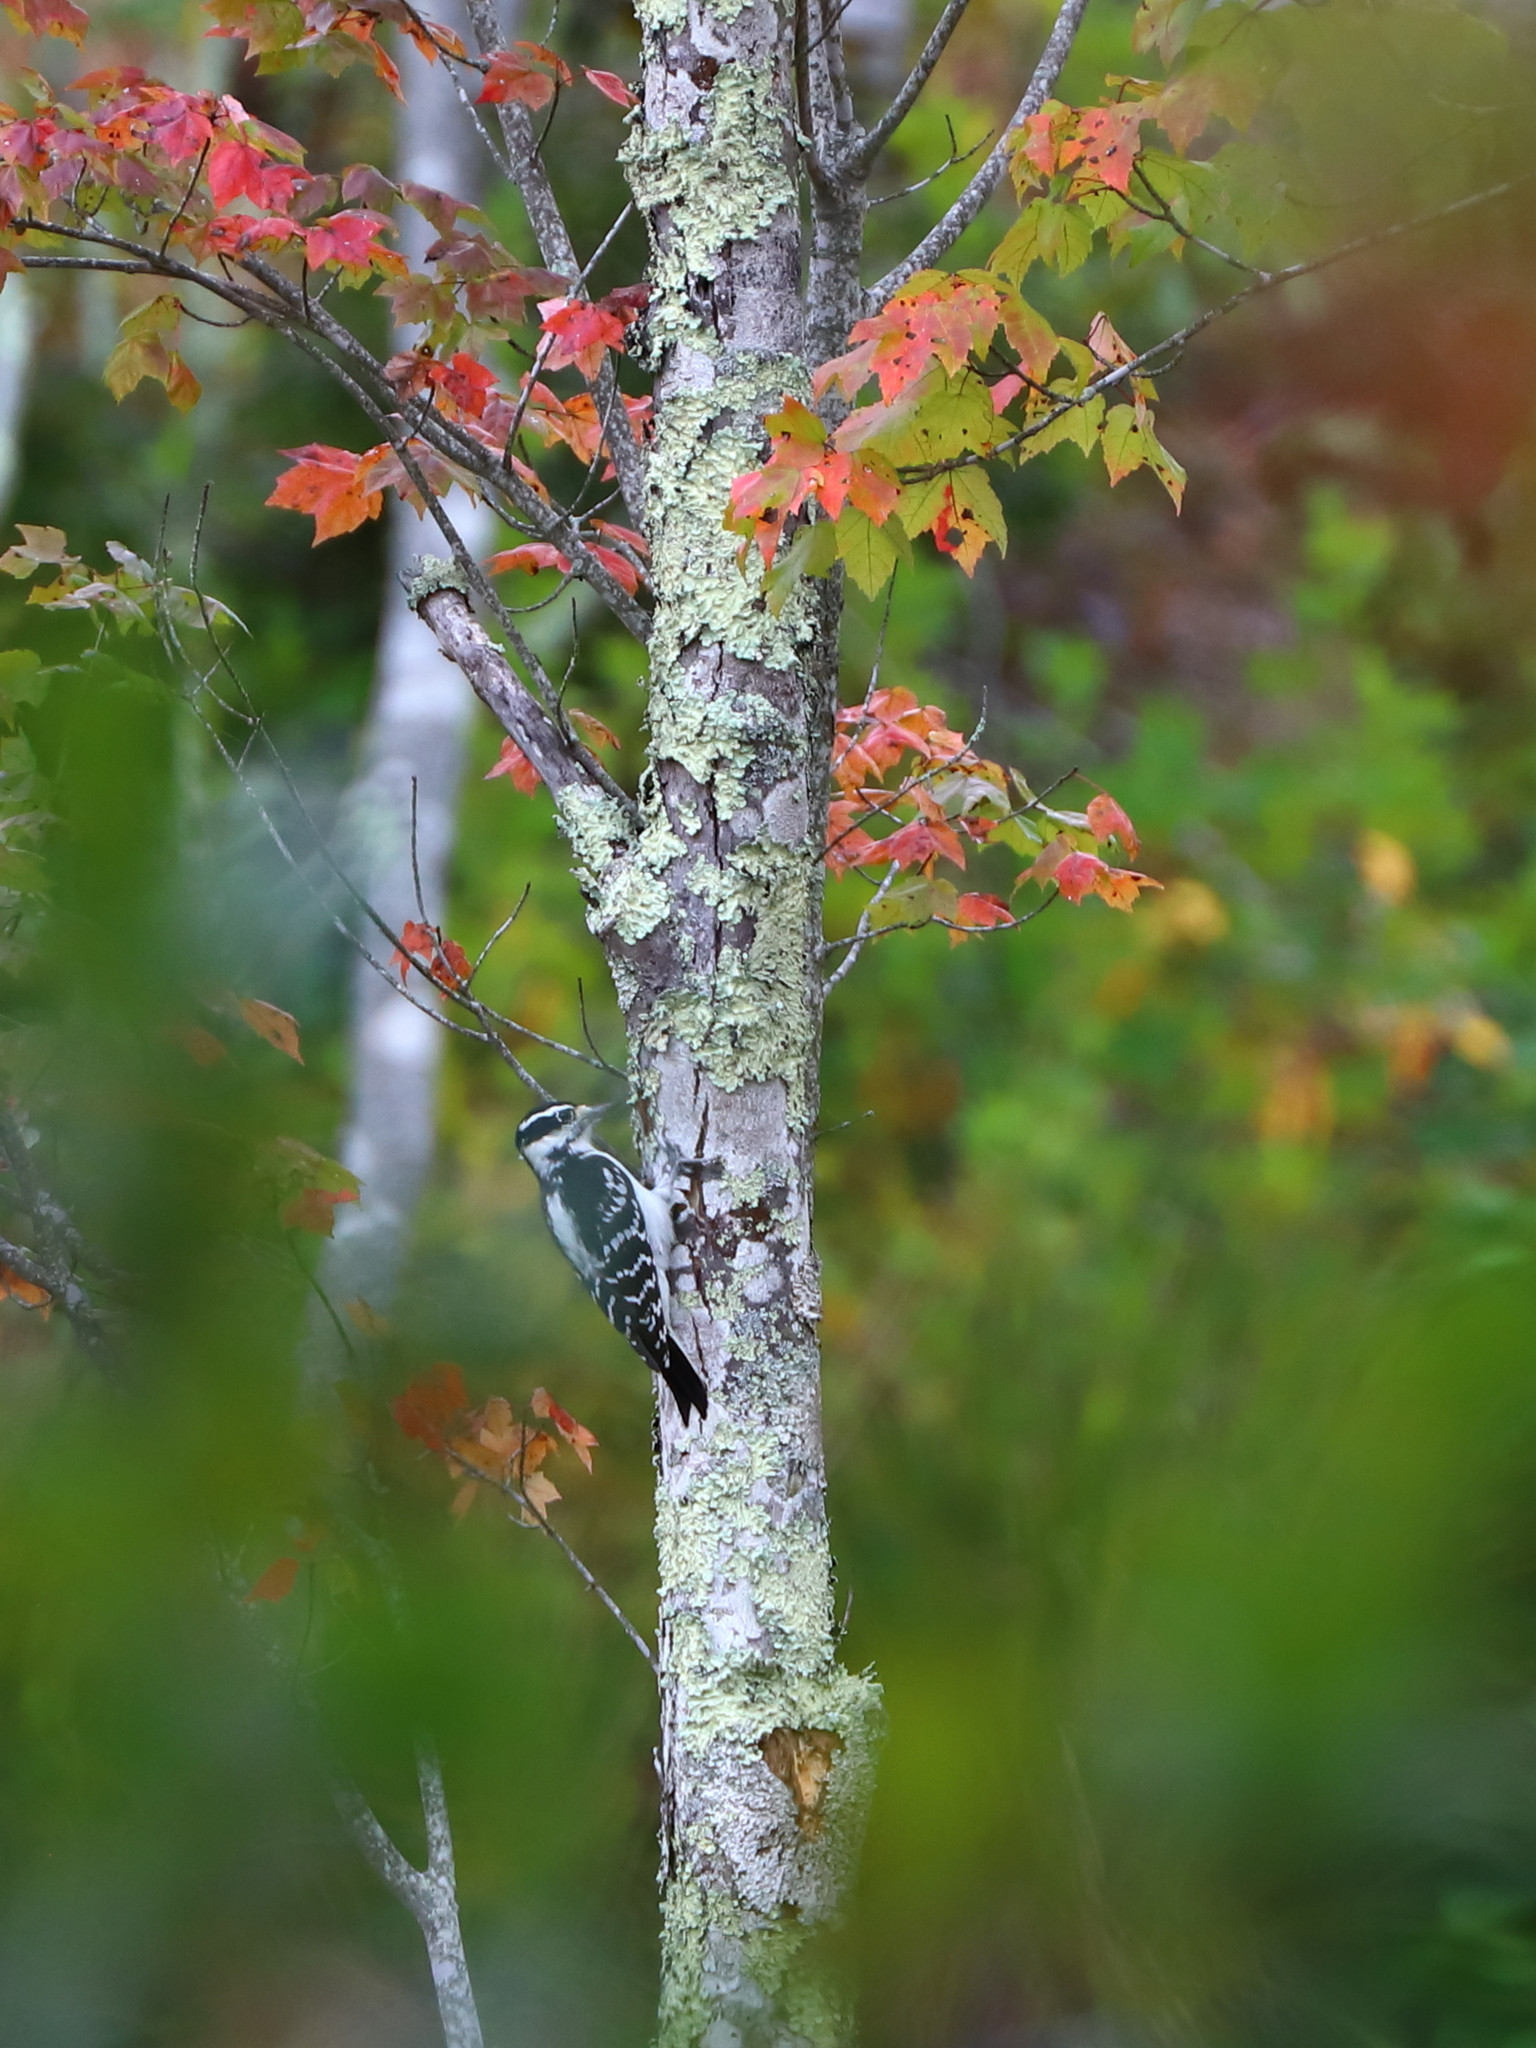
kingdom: Animalia
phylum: Chordata
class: Aves
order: Piciformes
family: Picidae
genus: Leuconotopicus
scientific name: Leuconotopicus villosus
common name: Hairy woodpecker
